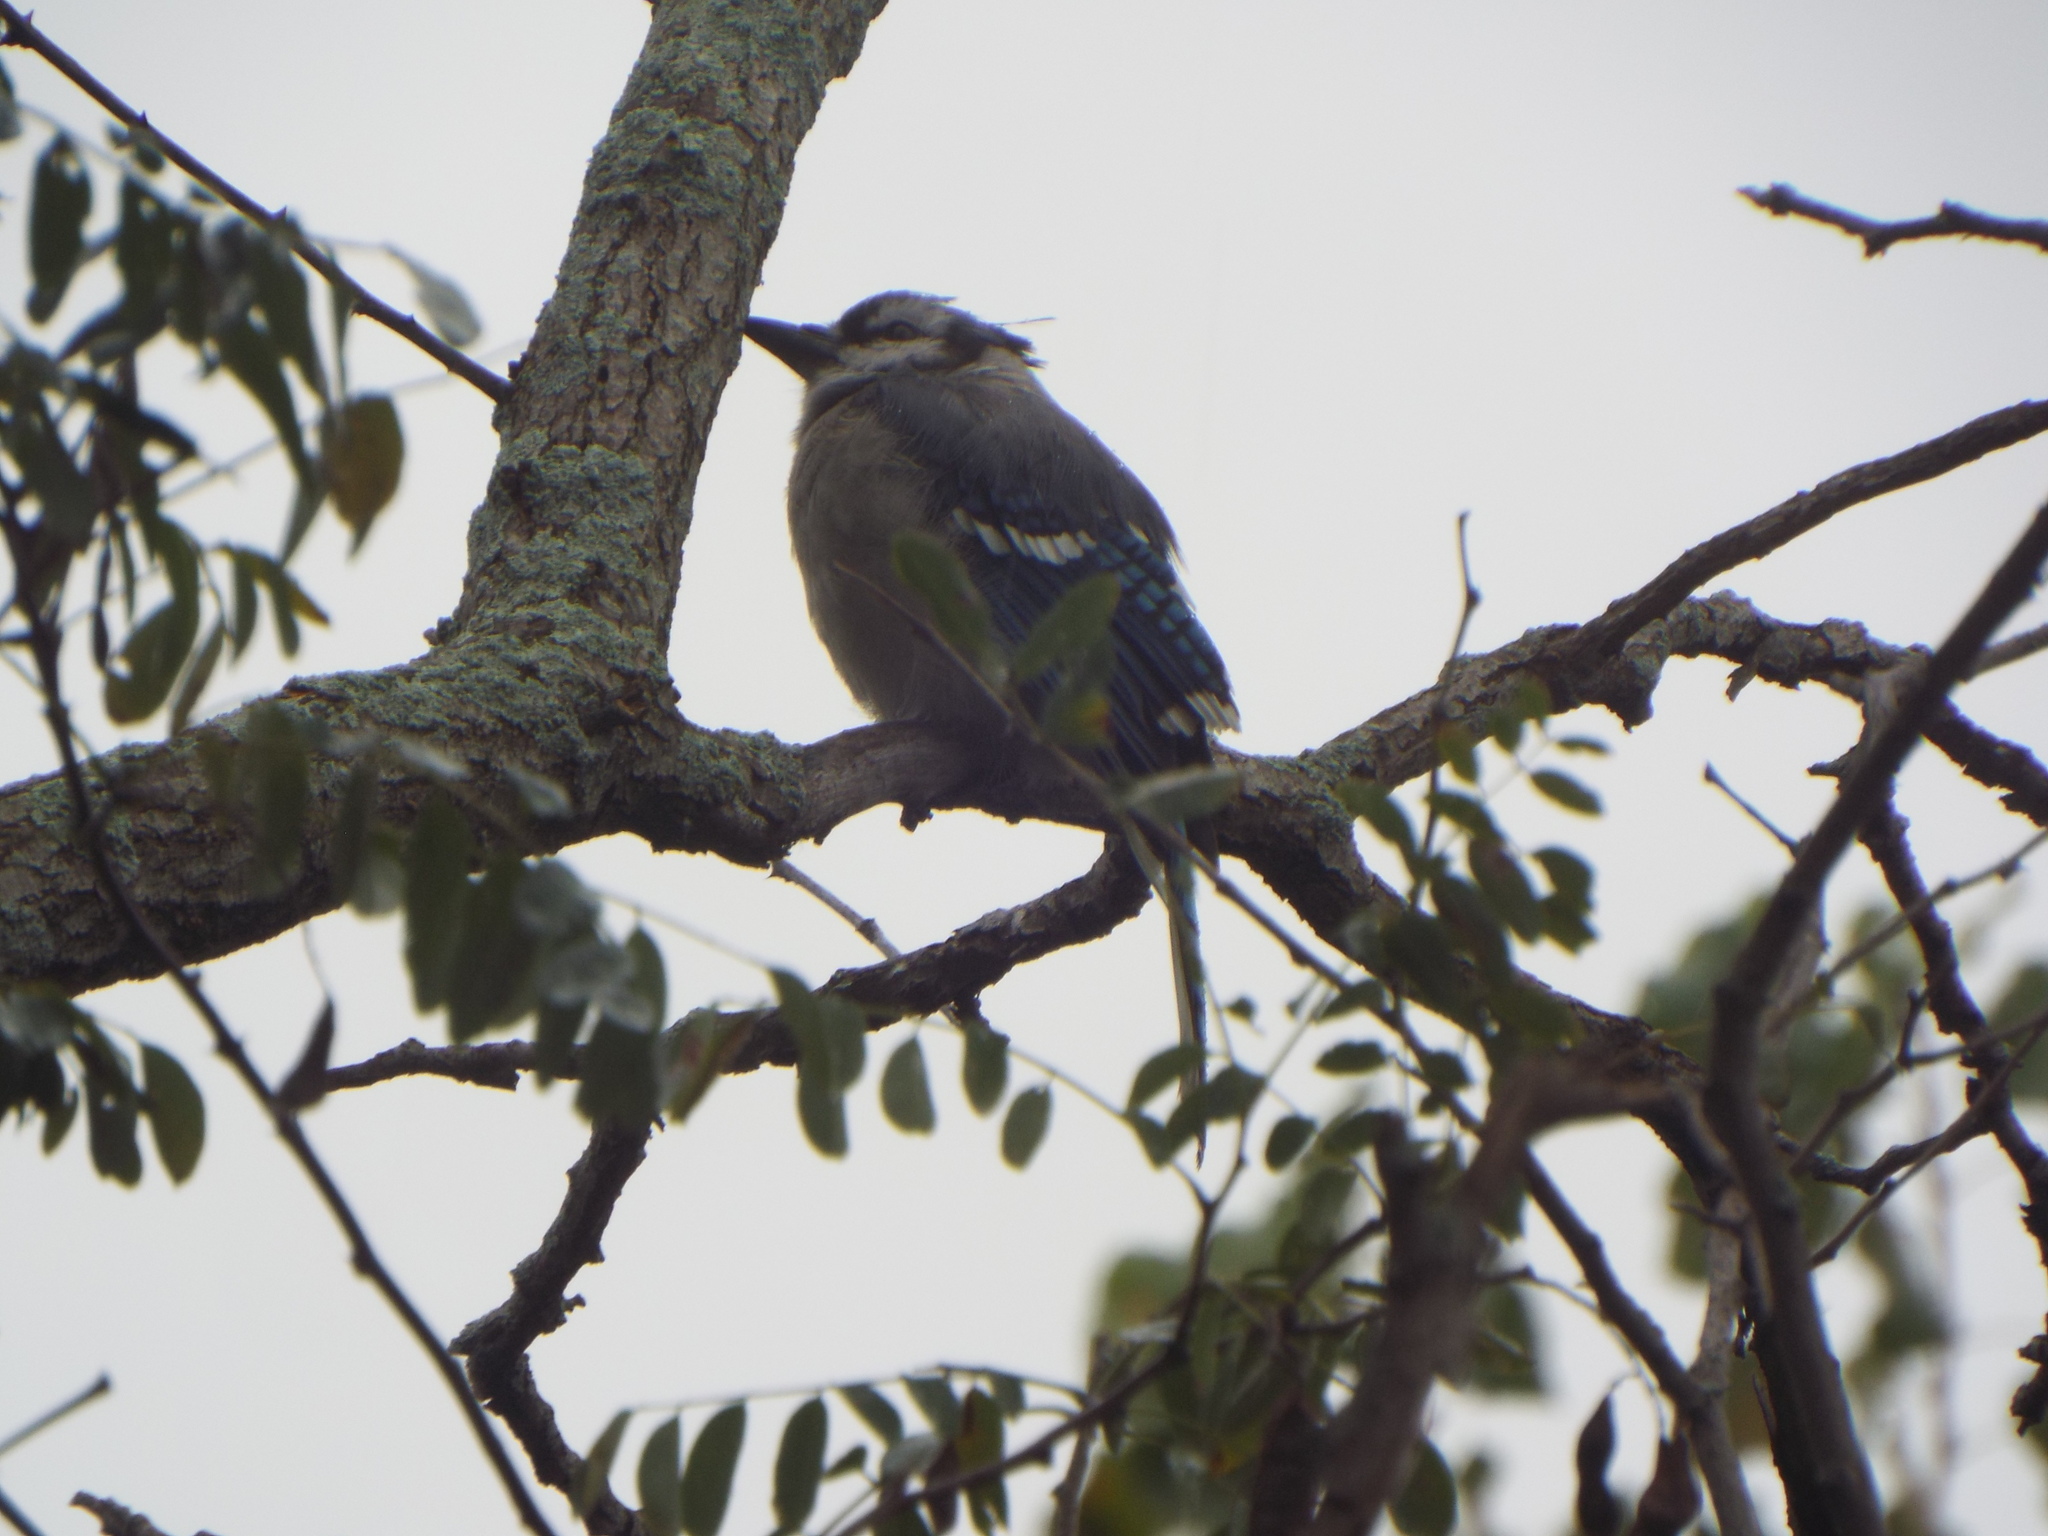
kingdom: Animalia
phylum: Chordata
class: Aves
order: Passeriformes
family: Corvidae
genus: Cyanocitta
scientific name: Cyanocitta cristata
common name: Blue jay
